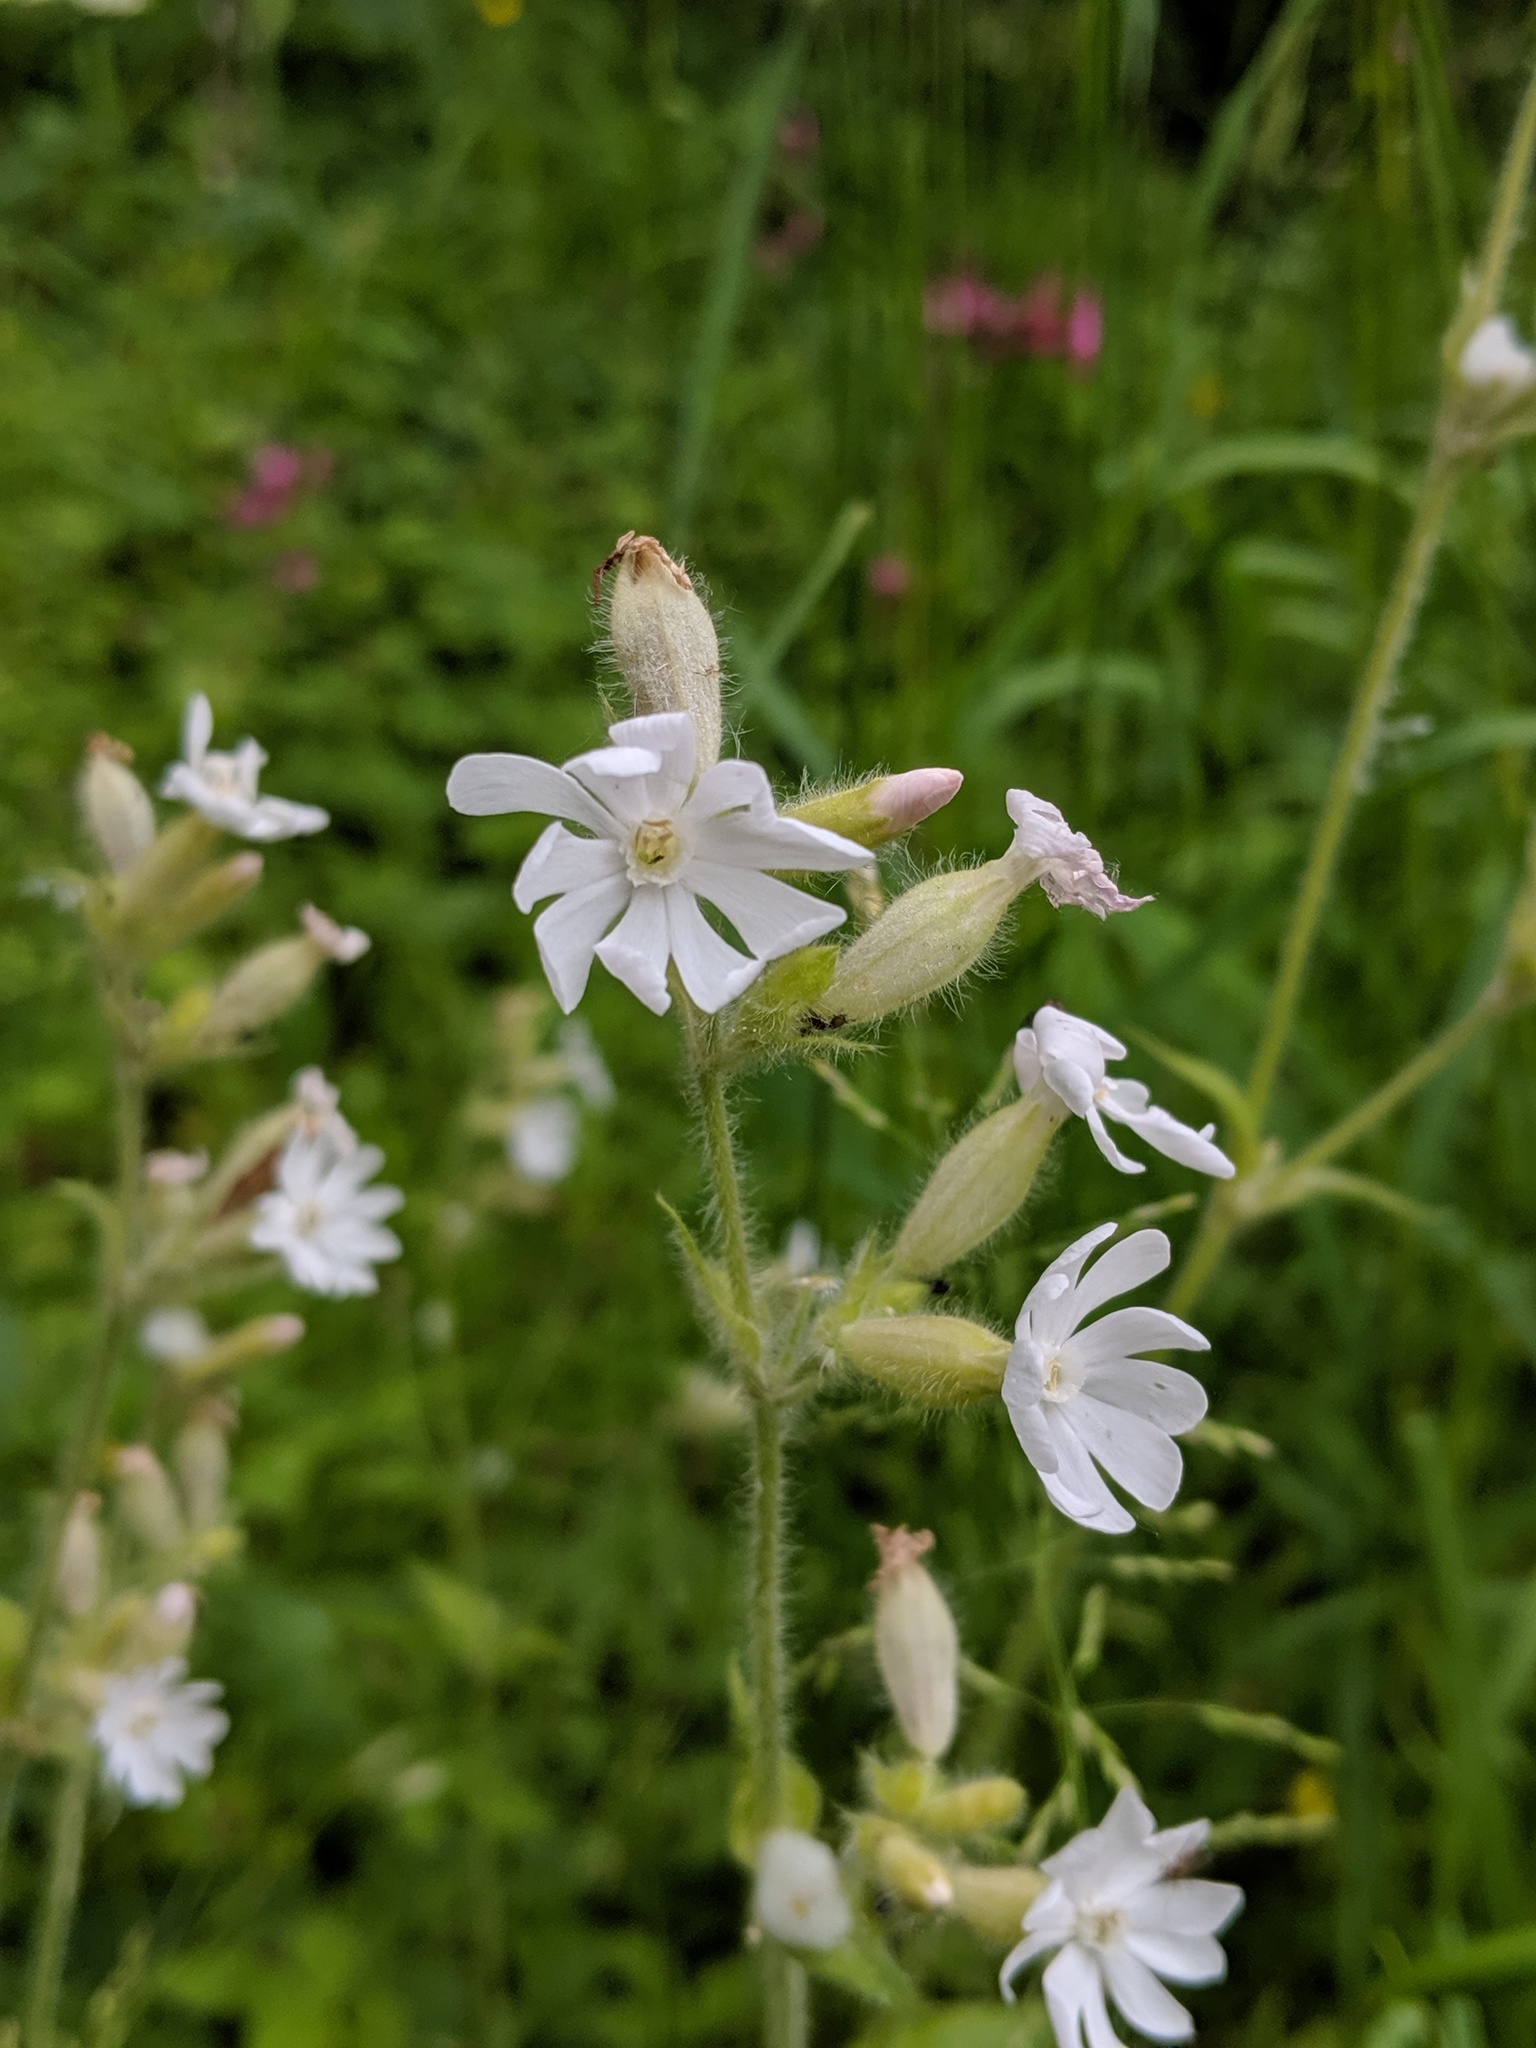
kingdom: Plantae
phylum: Tracheophyta
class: Magnoliopsida
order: Caryophyllales
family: Caryophyllaceae
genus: Silene
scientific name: Silene latifolia
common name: White campion
